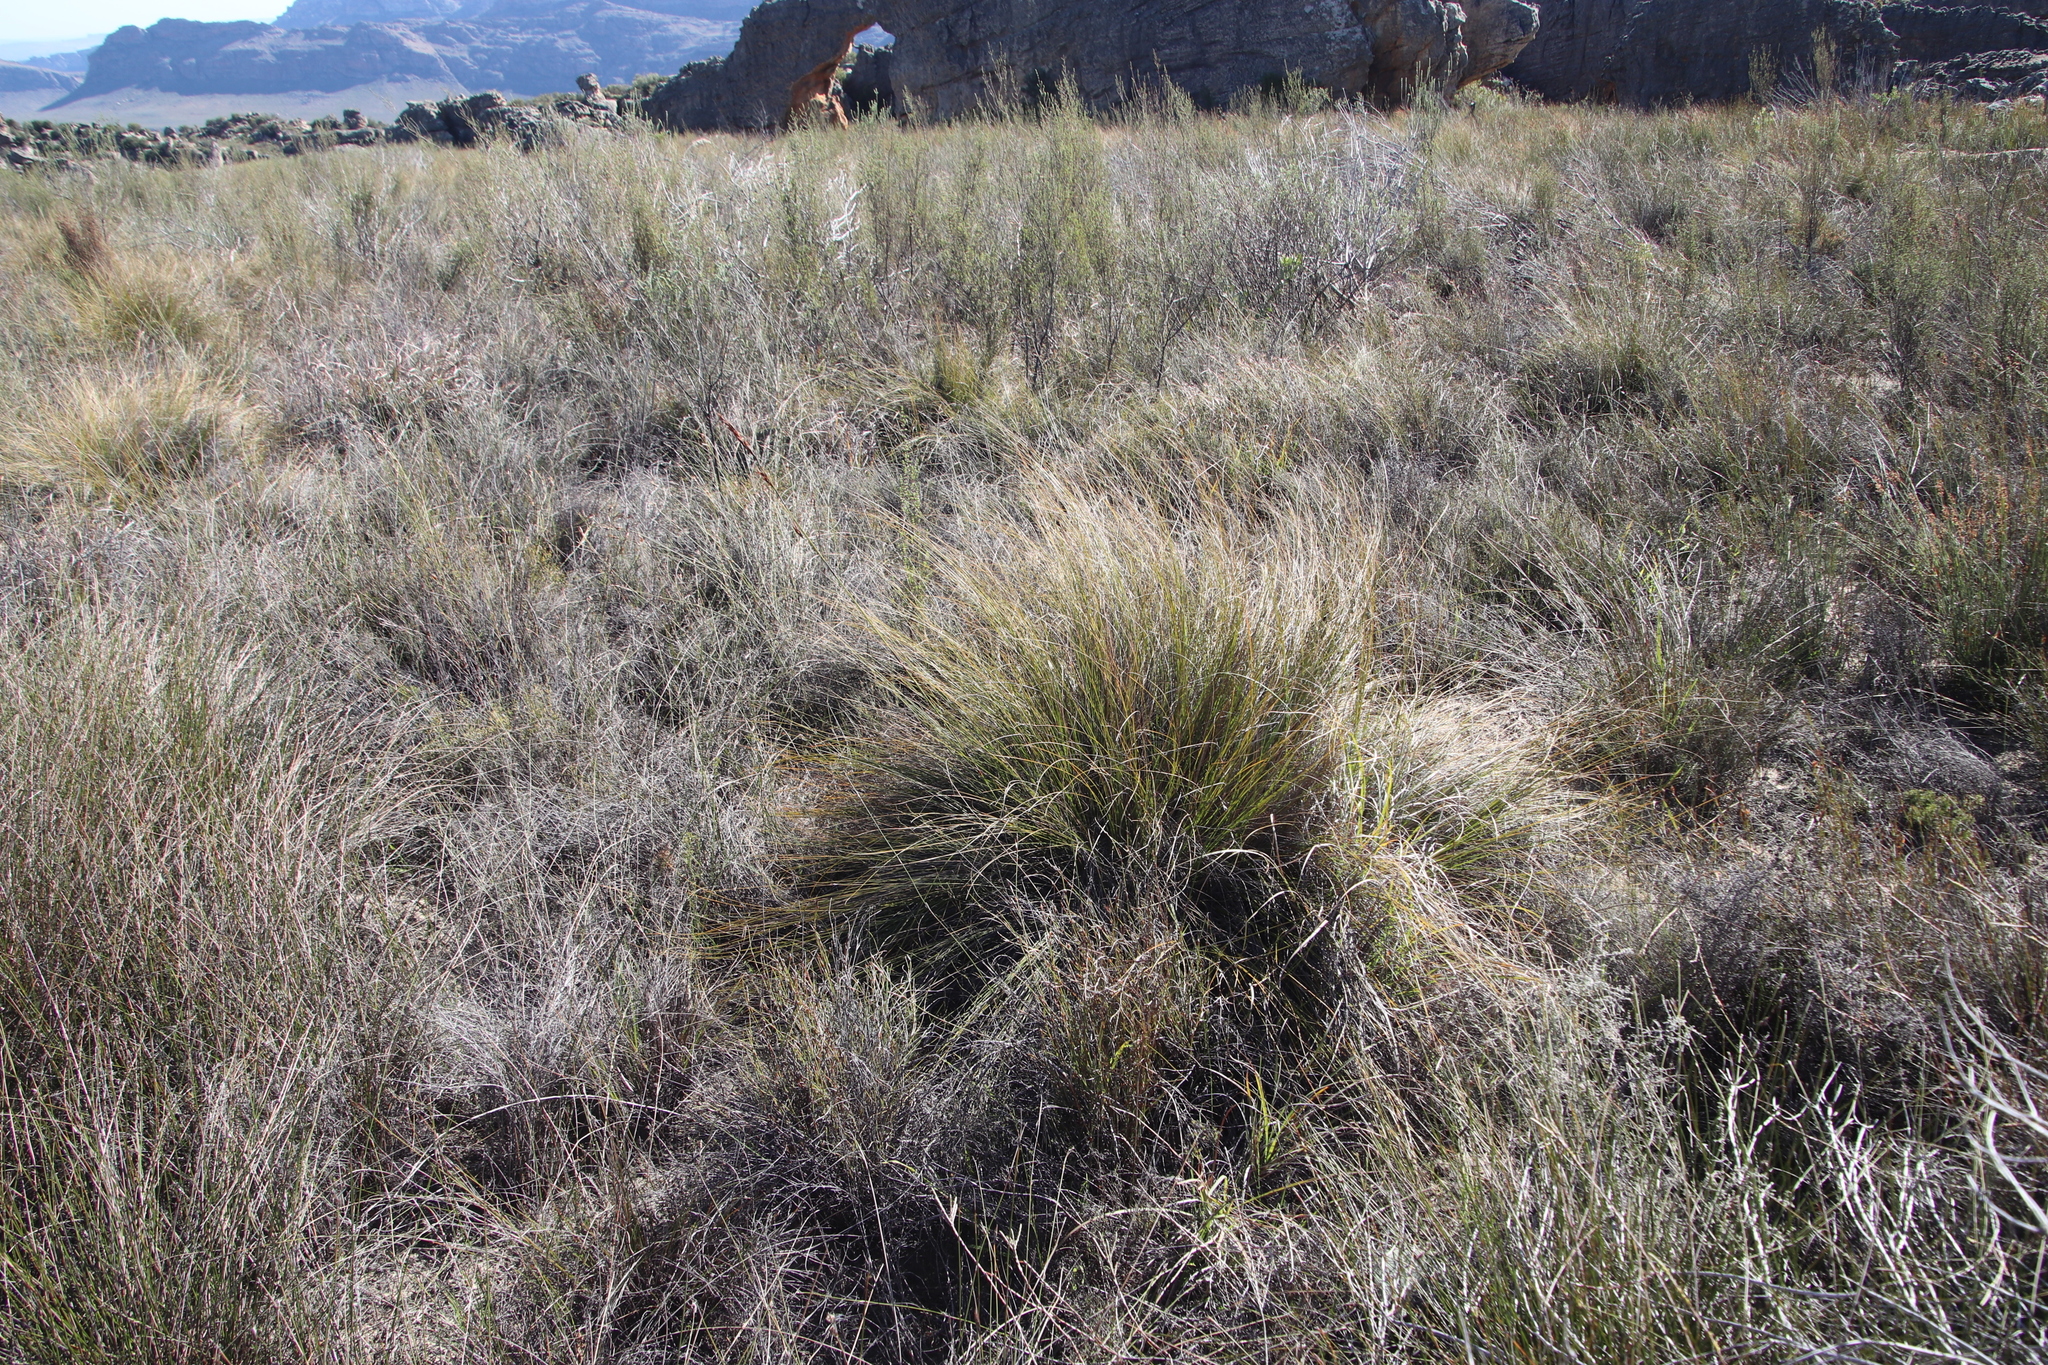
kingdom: Plantae
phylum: Tracheophyta
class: Liliopsida
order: Poales
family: Cyperaceae
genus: Tetraria
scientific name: Tetraria ustulata
